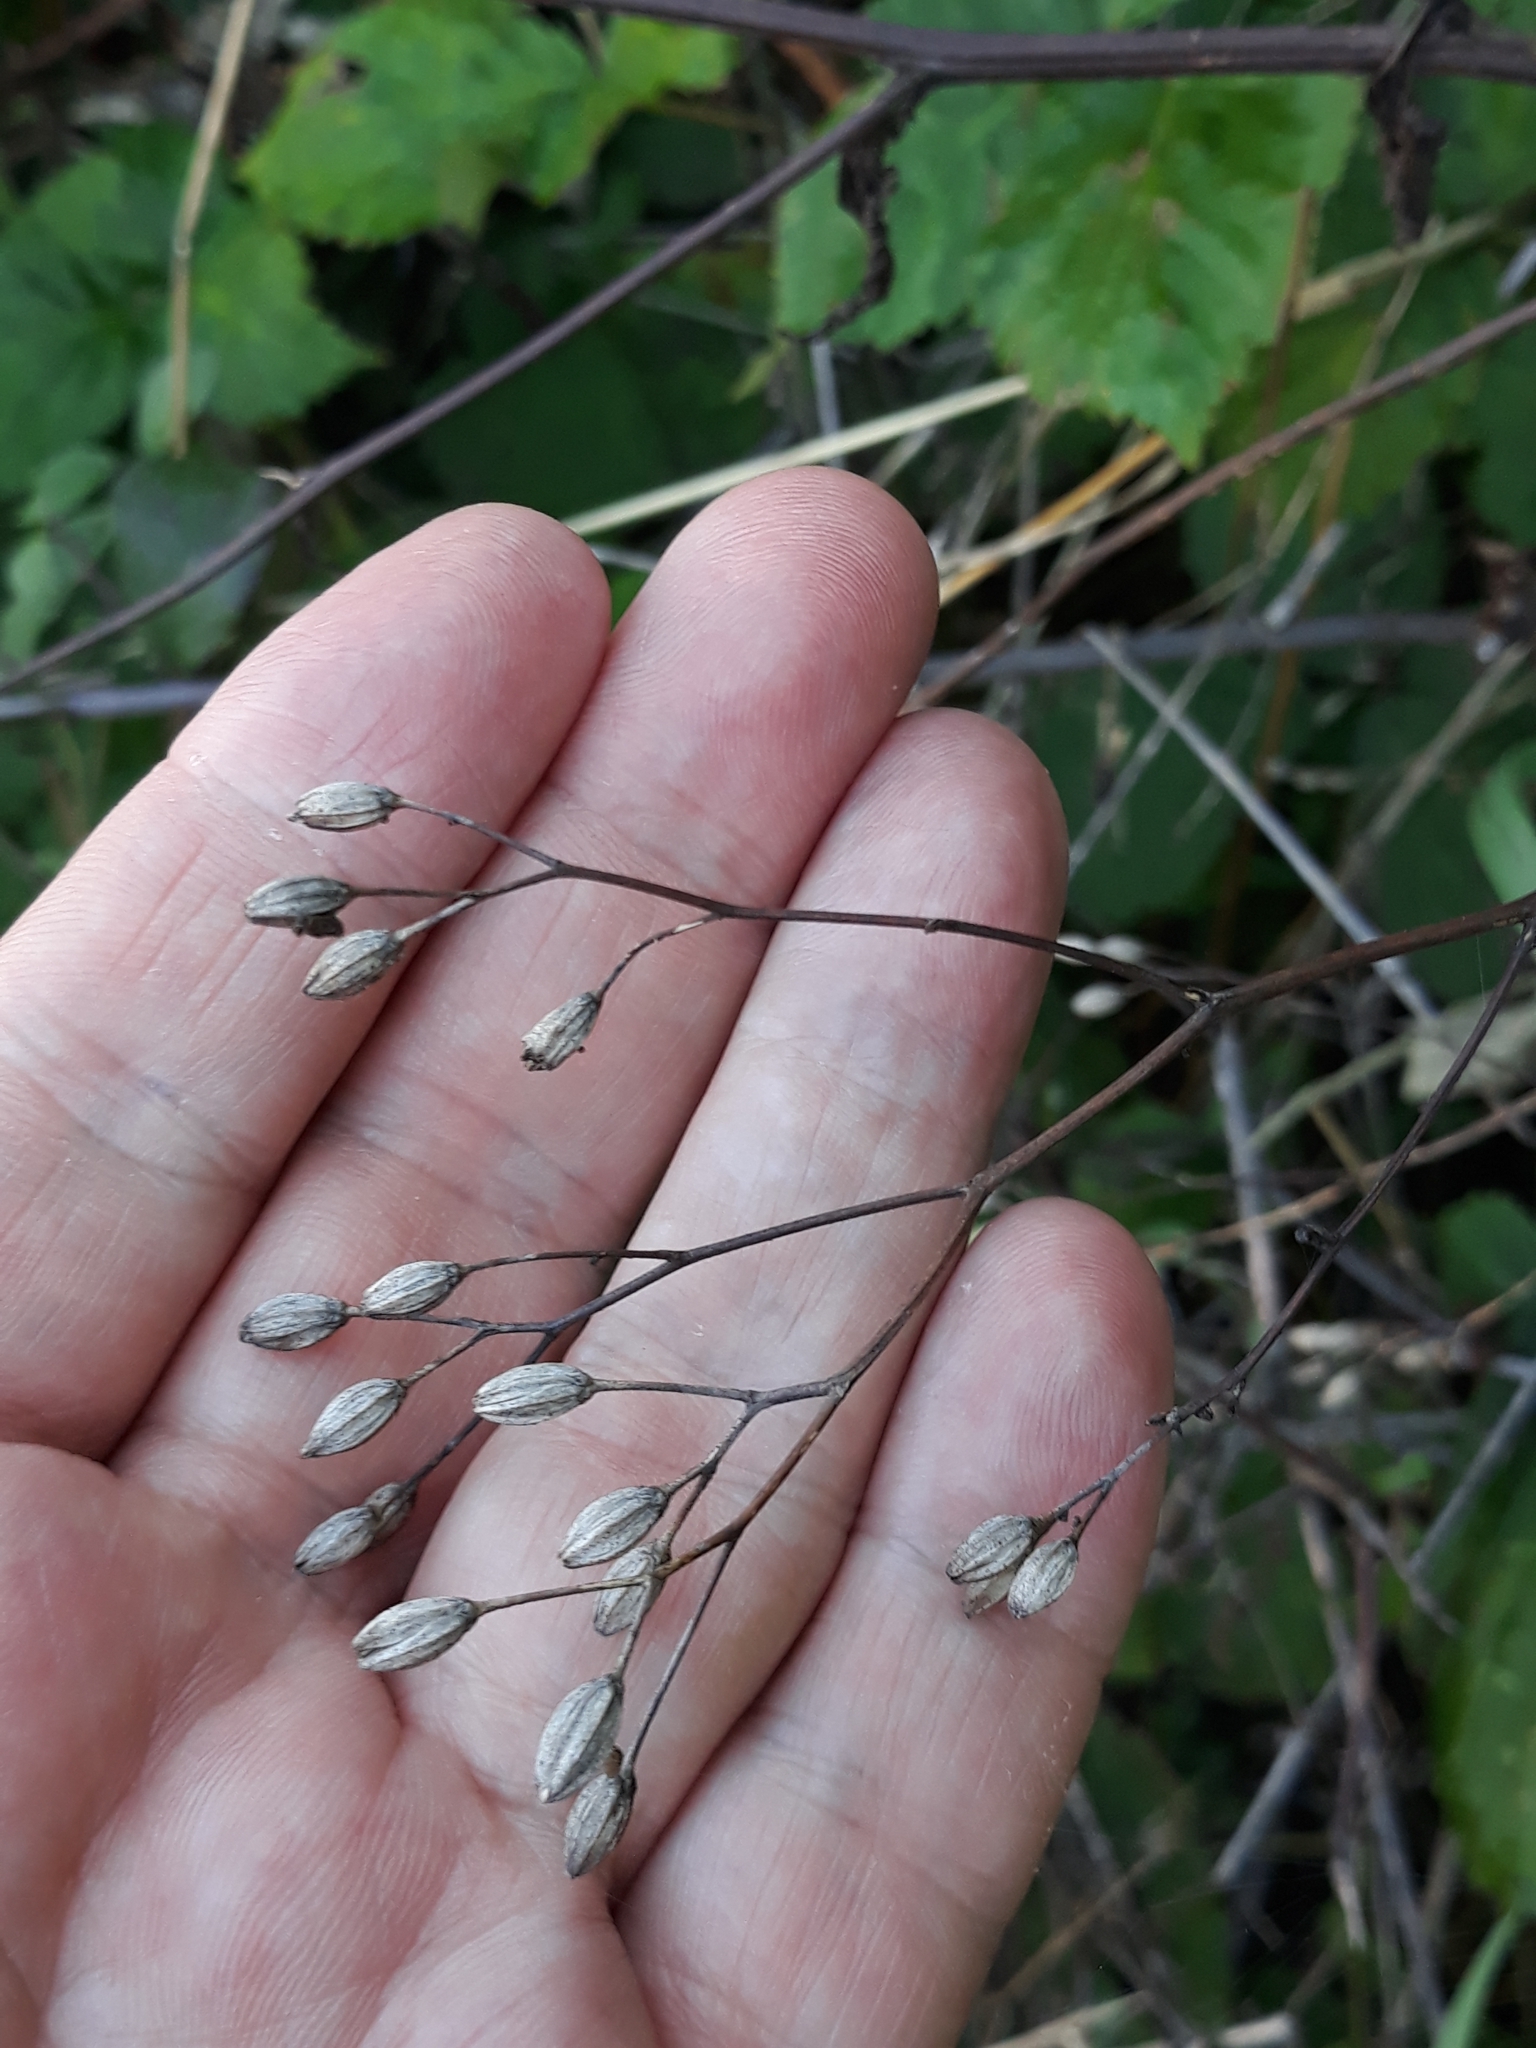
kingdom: Plantae
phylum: Tracheophyta
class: Magnoliopsida
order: Asterales
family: Asteraceae
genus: Lapsana
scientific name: Lapsana communis
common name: Nipplewort
